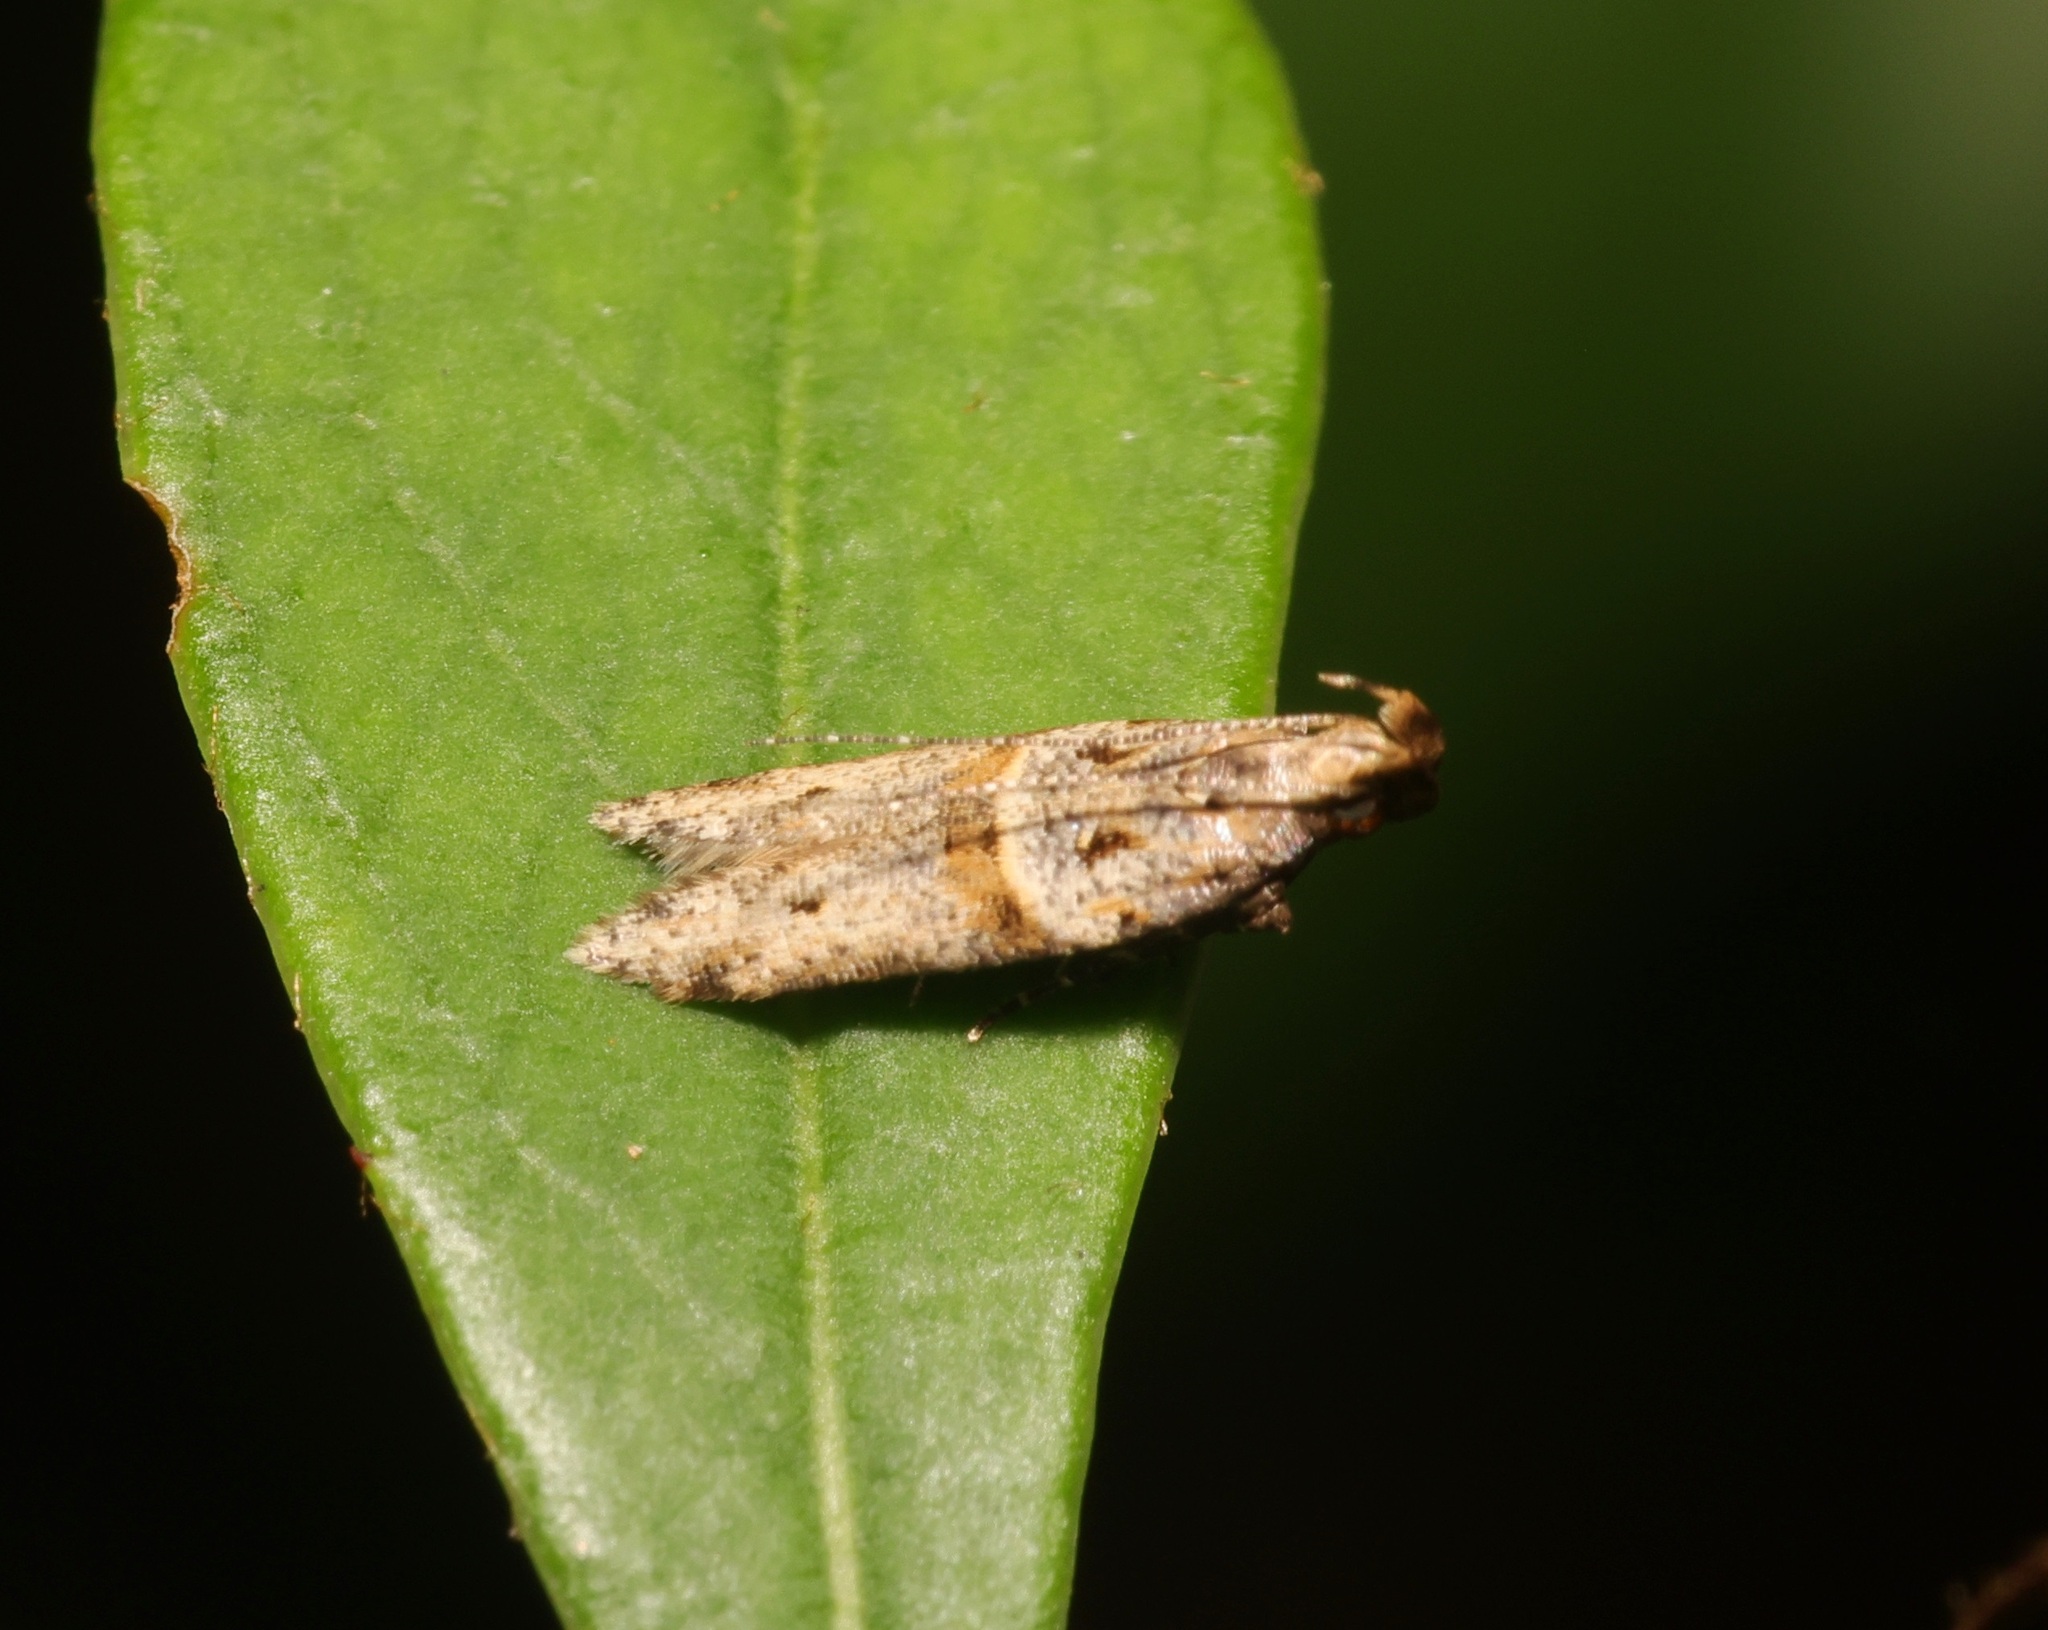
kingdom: Animalia
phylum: Arthropoda
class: Insecta
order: Lepidoptera
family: Gelechiidae
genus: Deltophora
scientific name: Deltophora polliniferens
